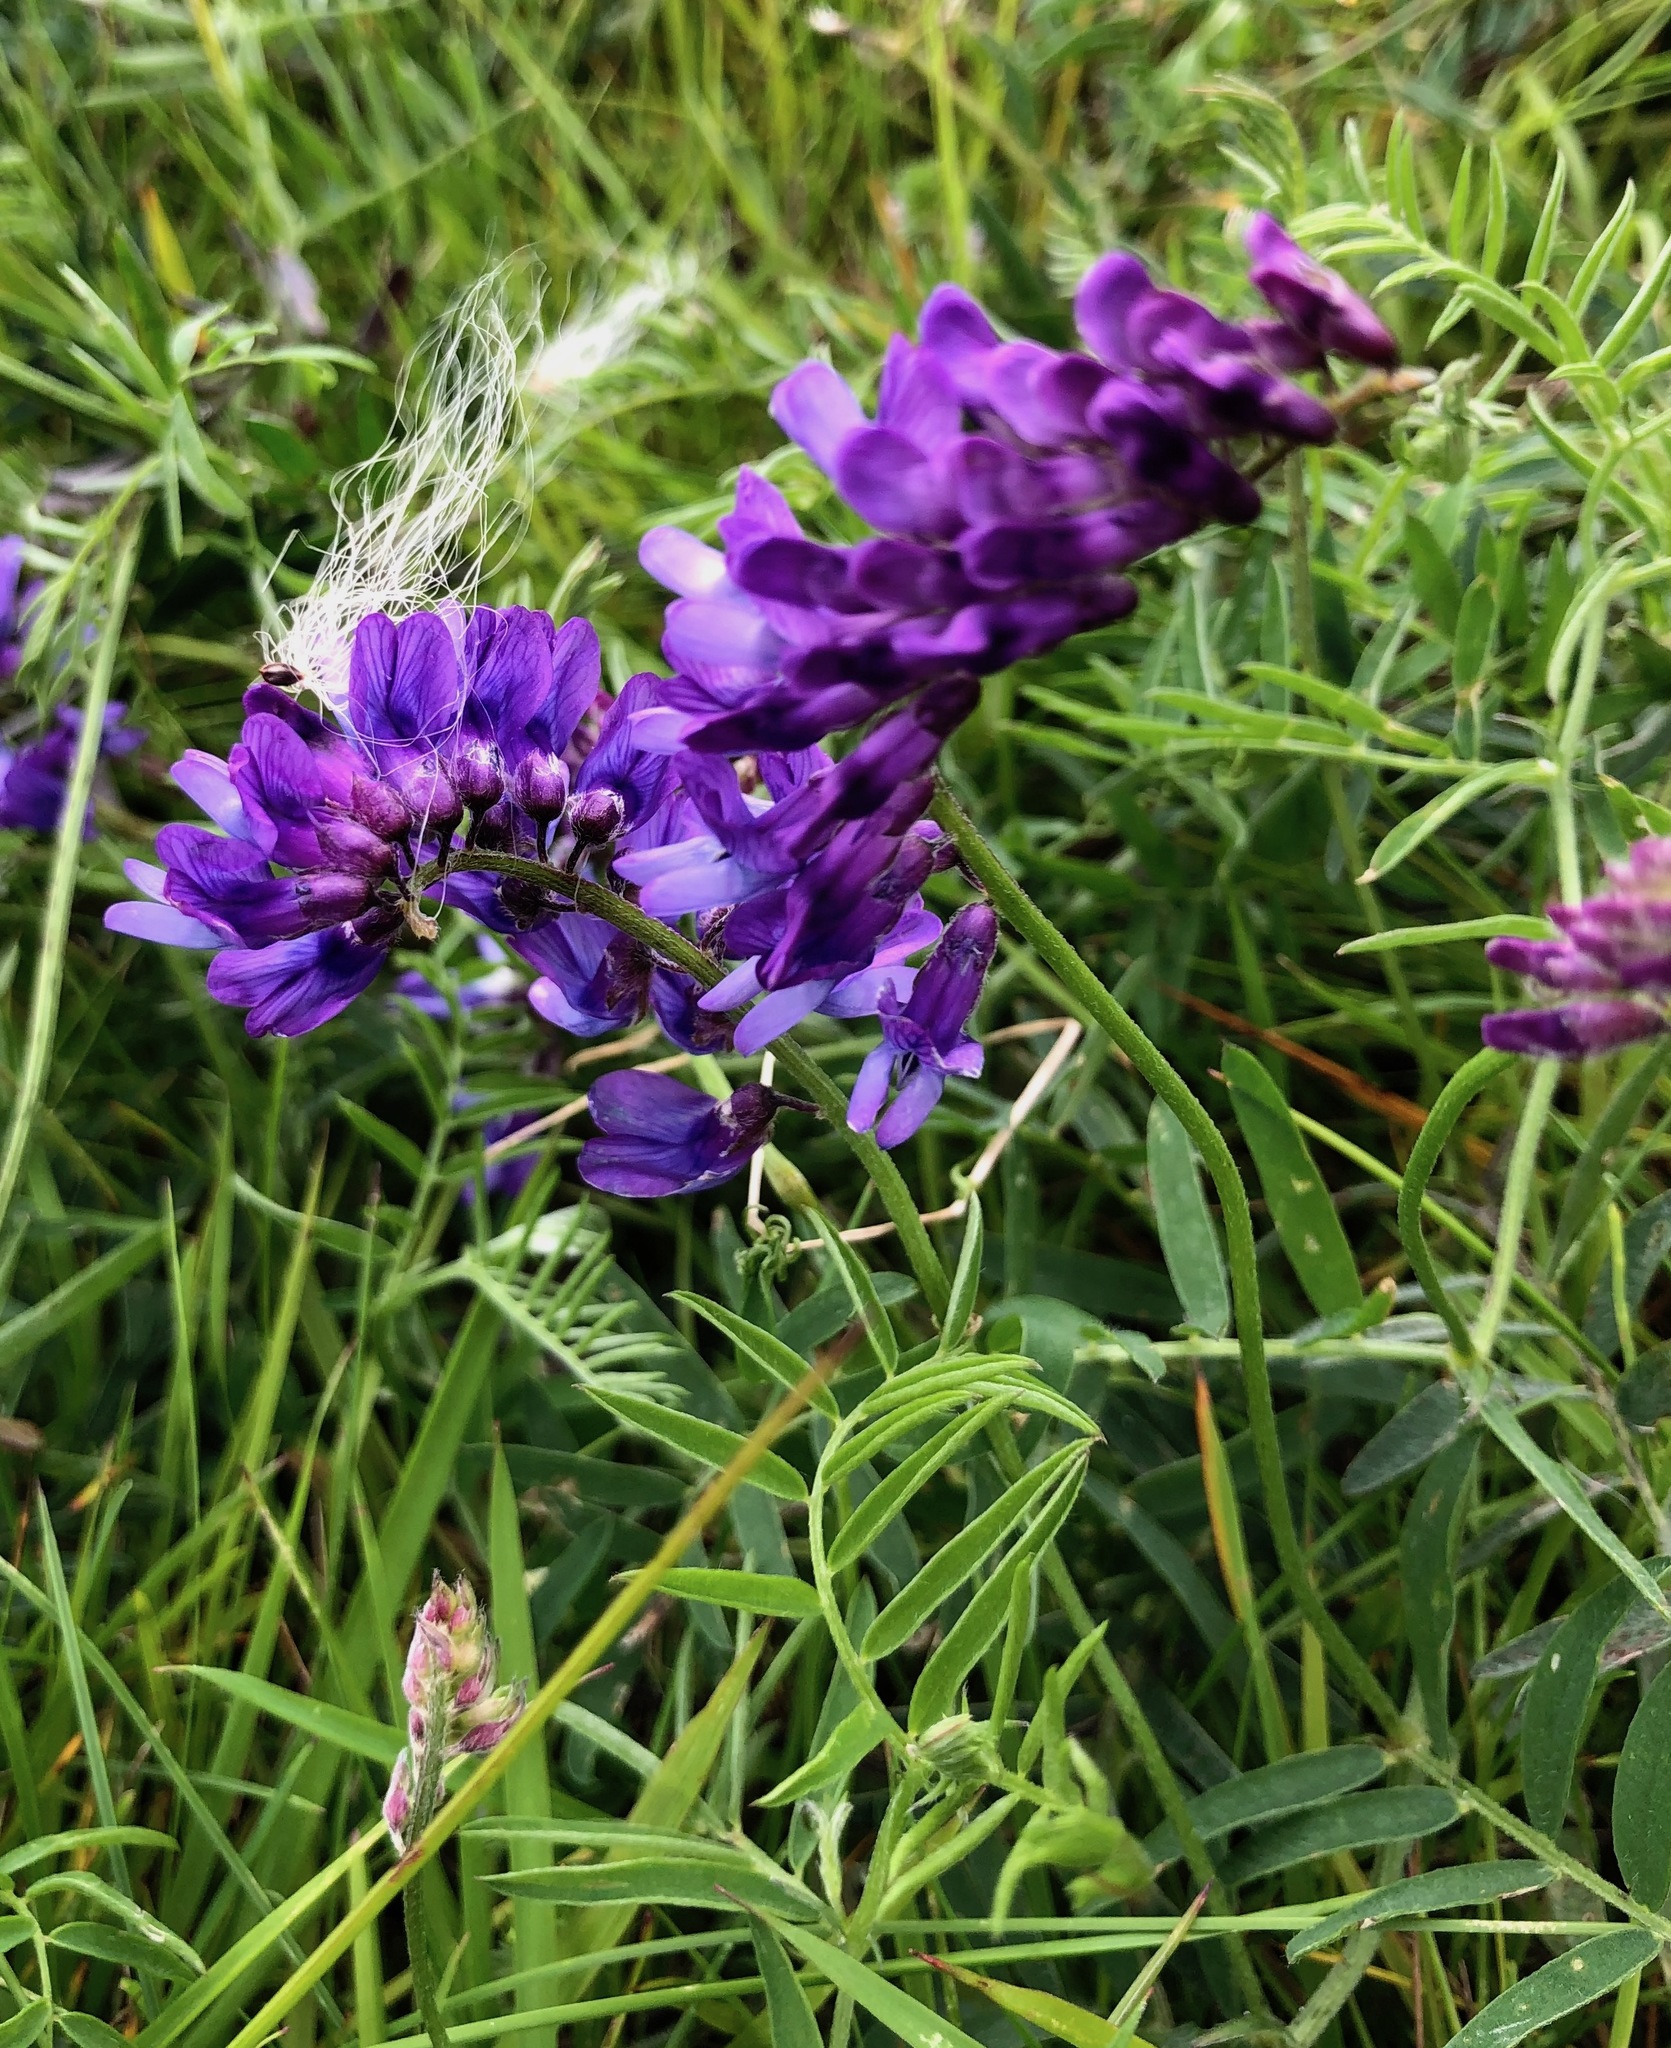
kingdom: Plantae
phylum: Tracheophyta
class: Magnoliopsida
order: Fabales
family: Fabaceae
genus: Vicia
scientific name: Vicia cracca
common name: Bird vetch
